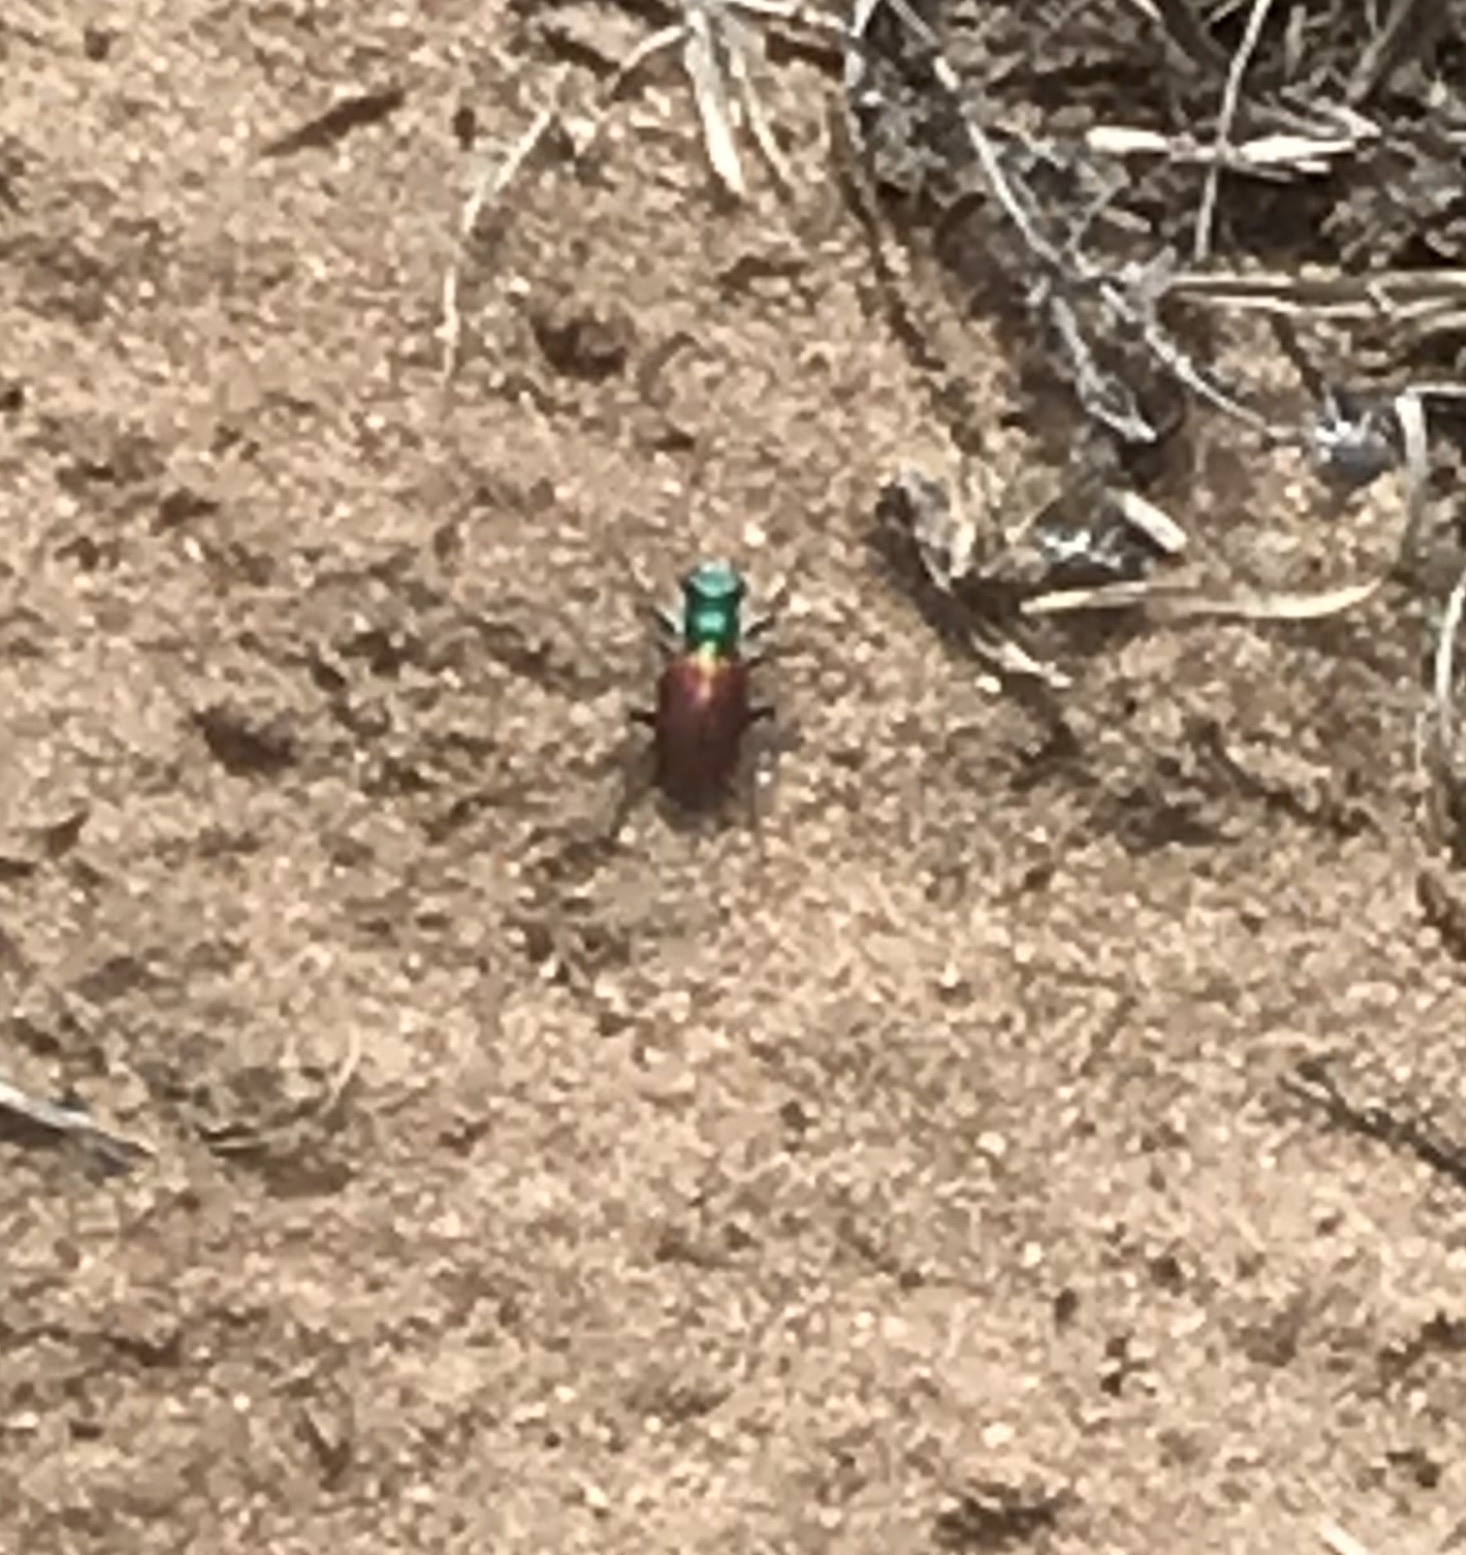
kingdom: Animalia
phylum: Arthropoda
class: Insecta
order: Coleoptera
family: Carabidae
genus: Cicindela
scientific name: Cicindela scutellaris
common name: Festive tiger beetle
